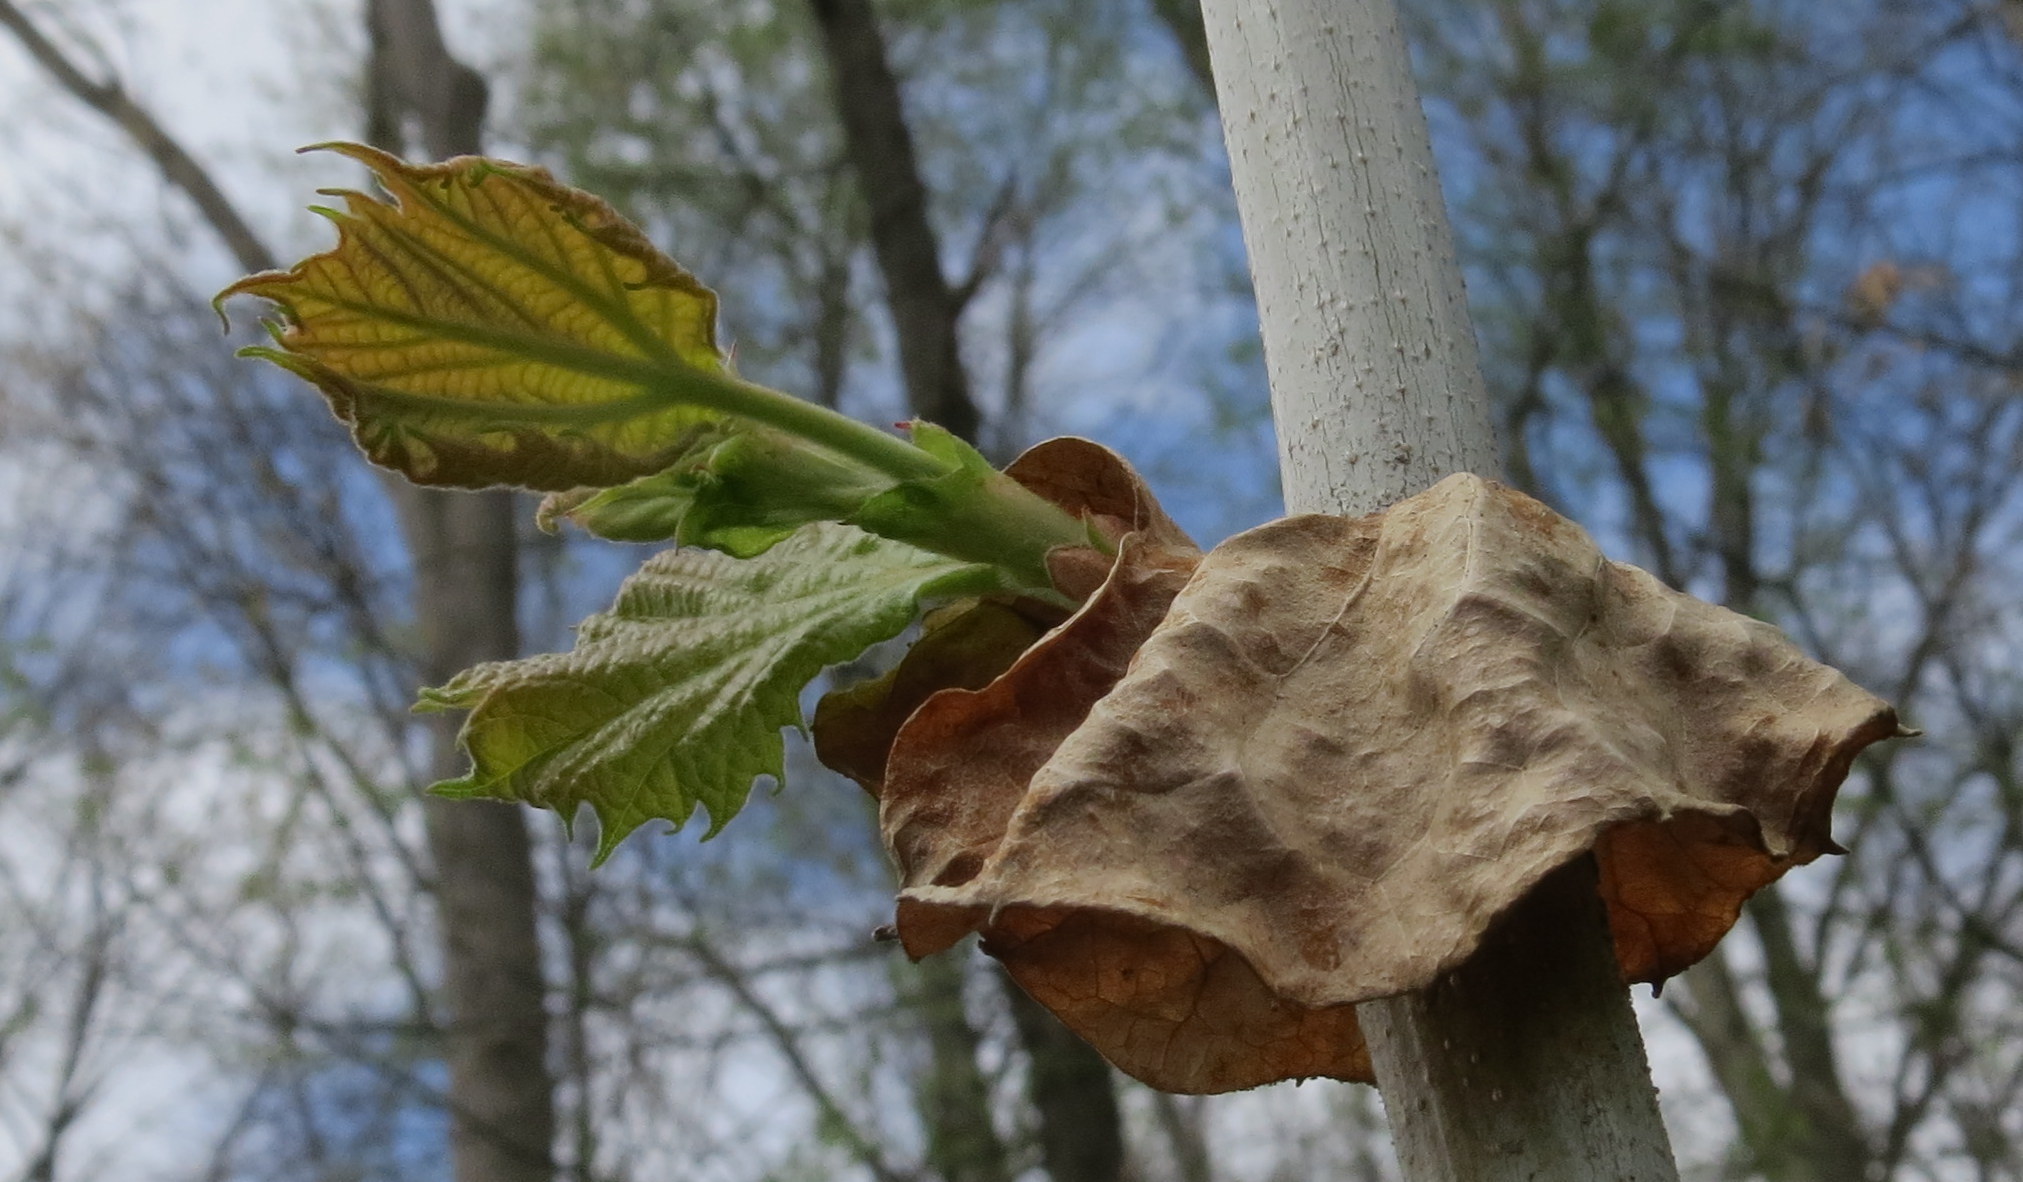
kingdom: Plantae
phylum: Tracheophyta
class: Magnoliopsida
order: Proteales
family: Platanaceae
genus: Platanus
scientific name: Platanus occidentalis
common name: American sycamore
